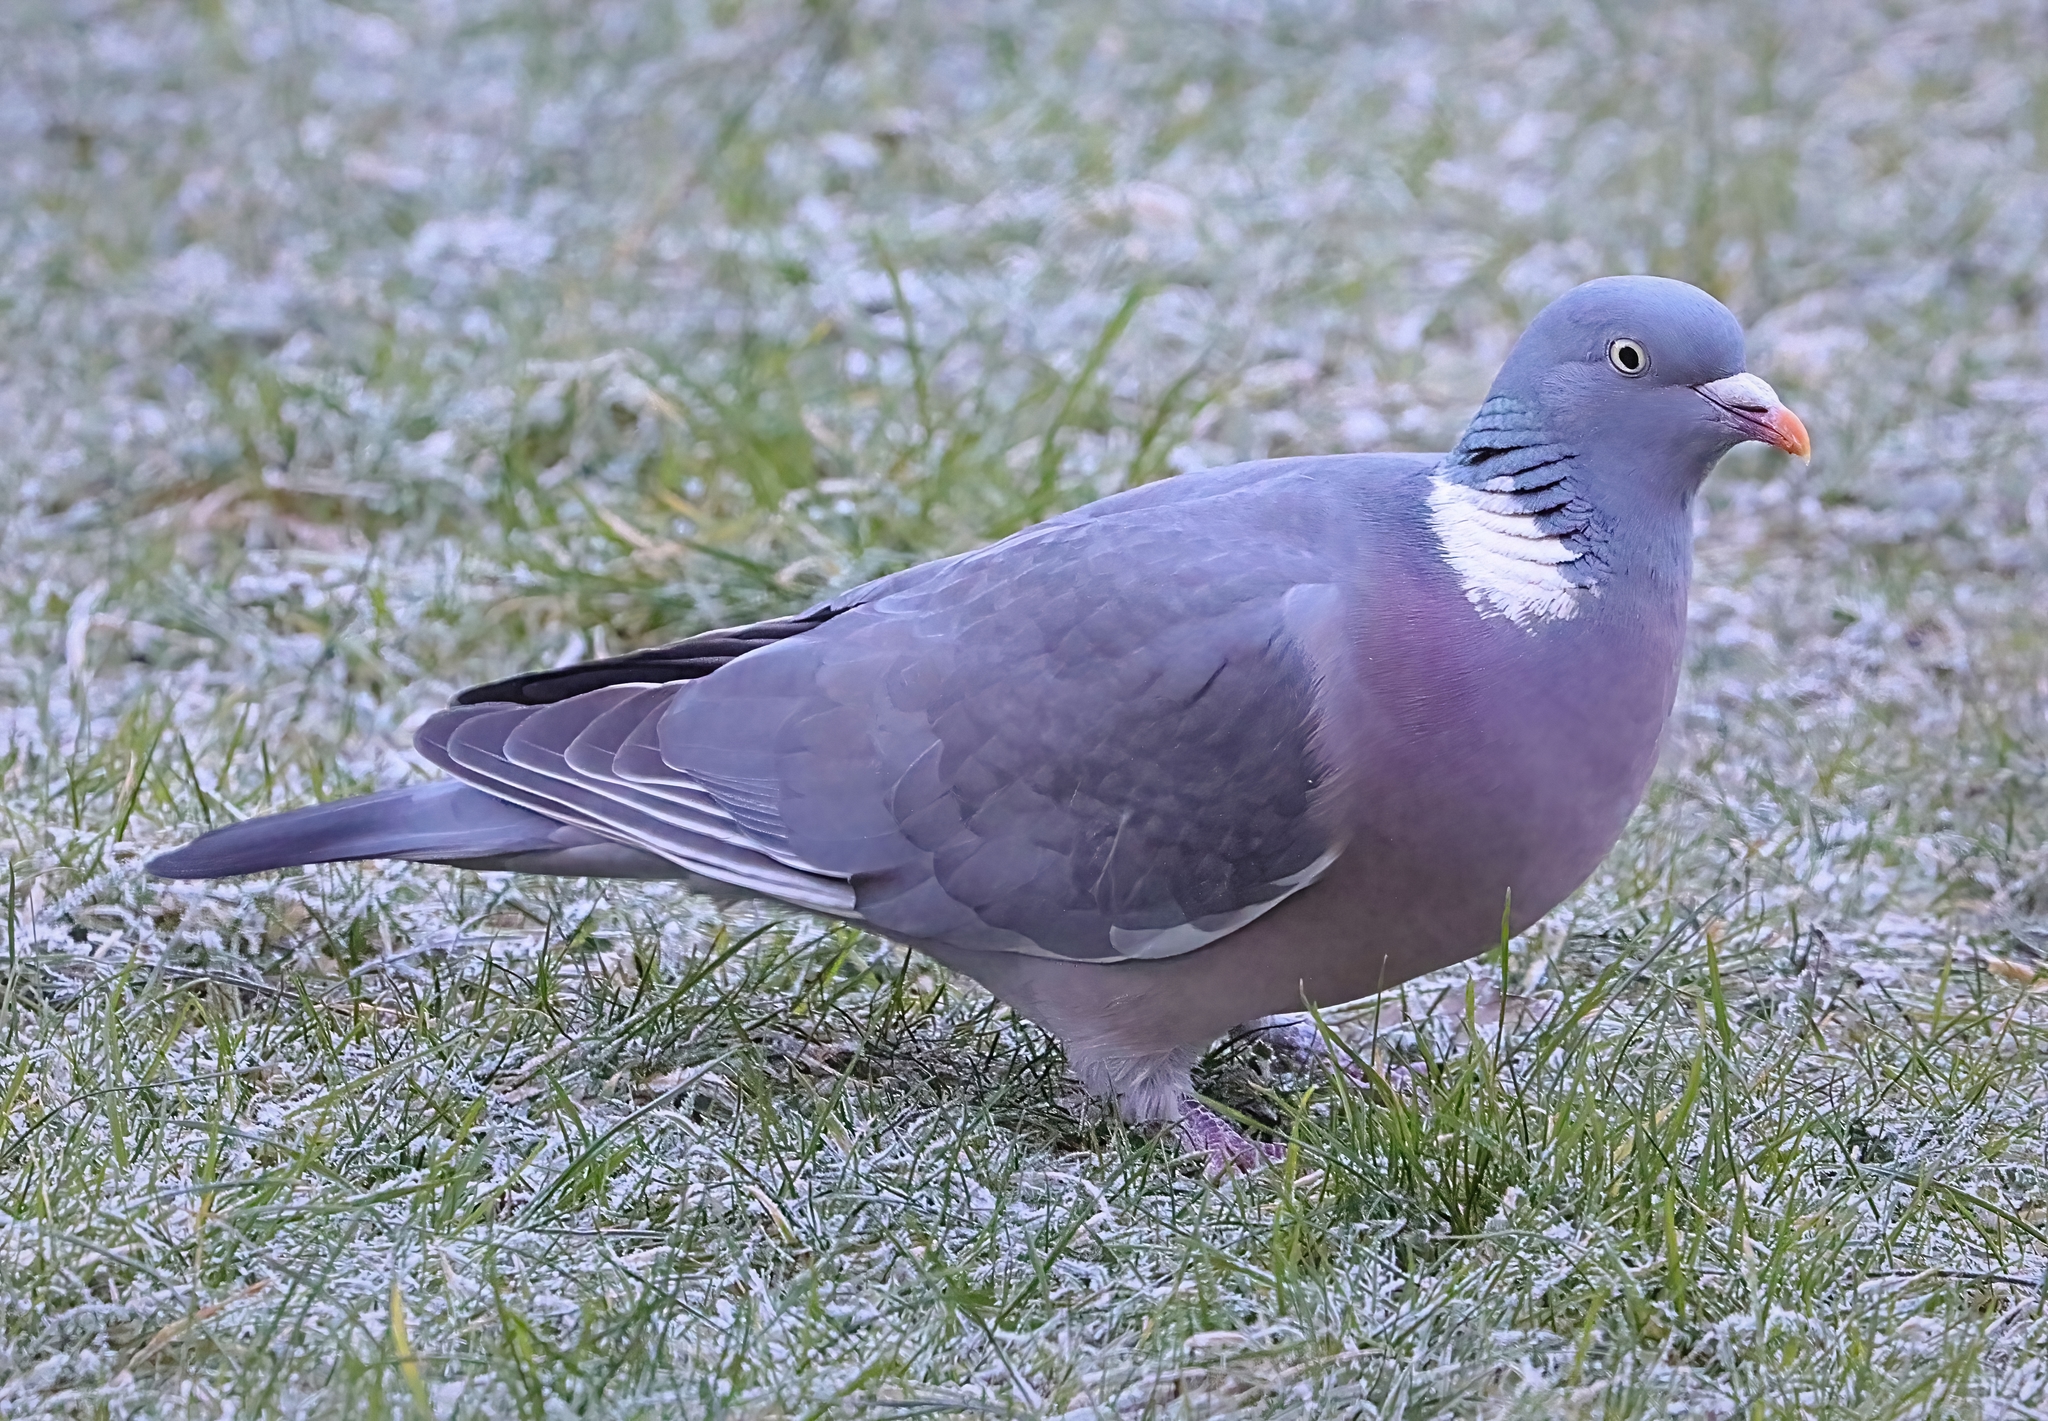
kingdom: Animalia
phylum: Chordata
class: Aves
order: Columbiformes
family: Columbidae
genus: Columba
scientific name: Columba palumbus
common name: Common wood pigeon
